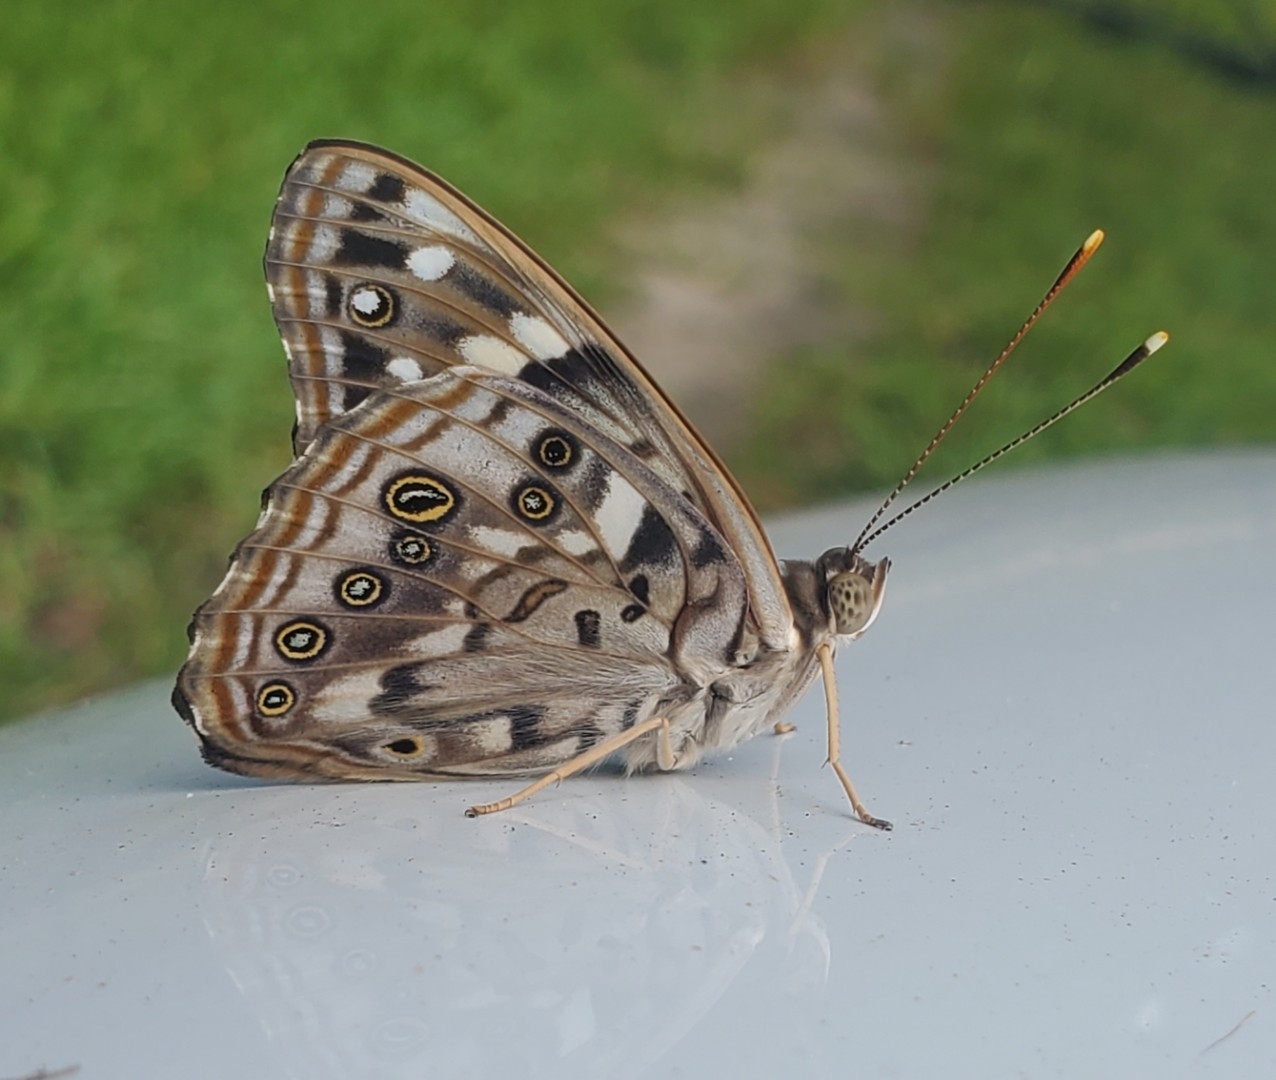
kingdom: Animalia
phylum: Arthropoda
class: Insecta
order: Lepidoptera
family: Nymphalidae
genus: Asterocampa
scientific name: Asterocampa celtis
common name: Hackberry emperor
